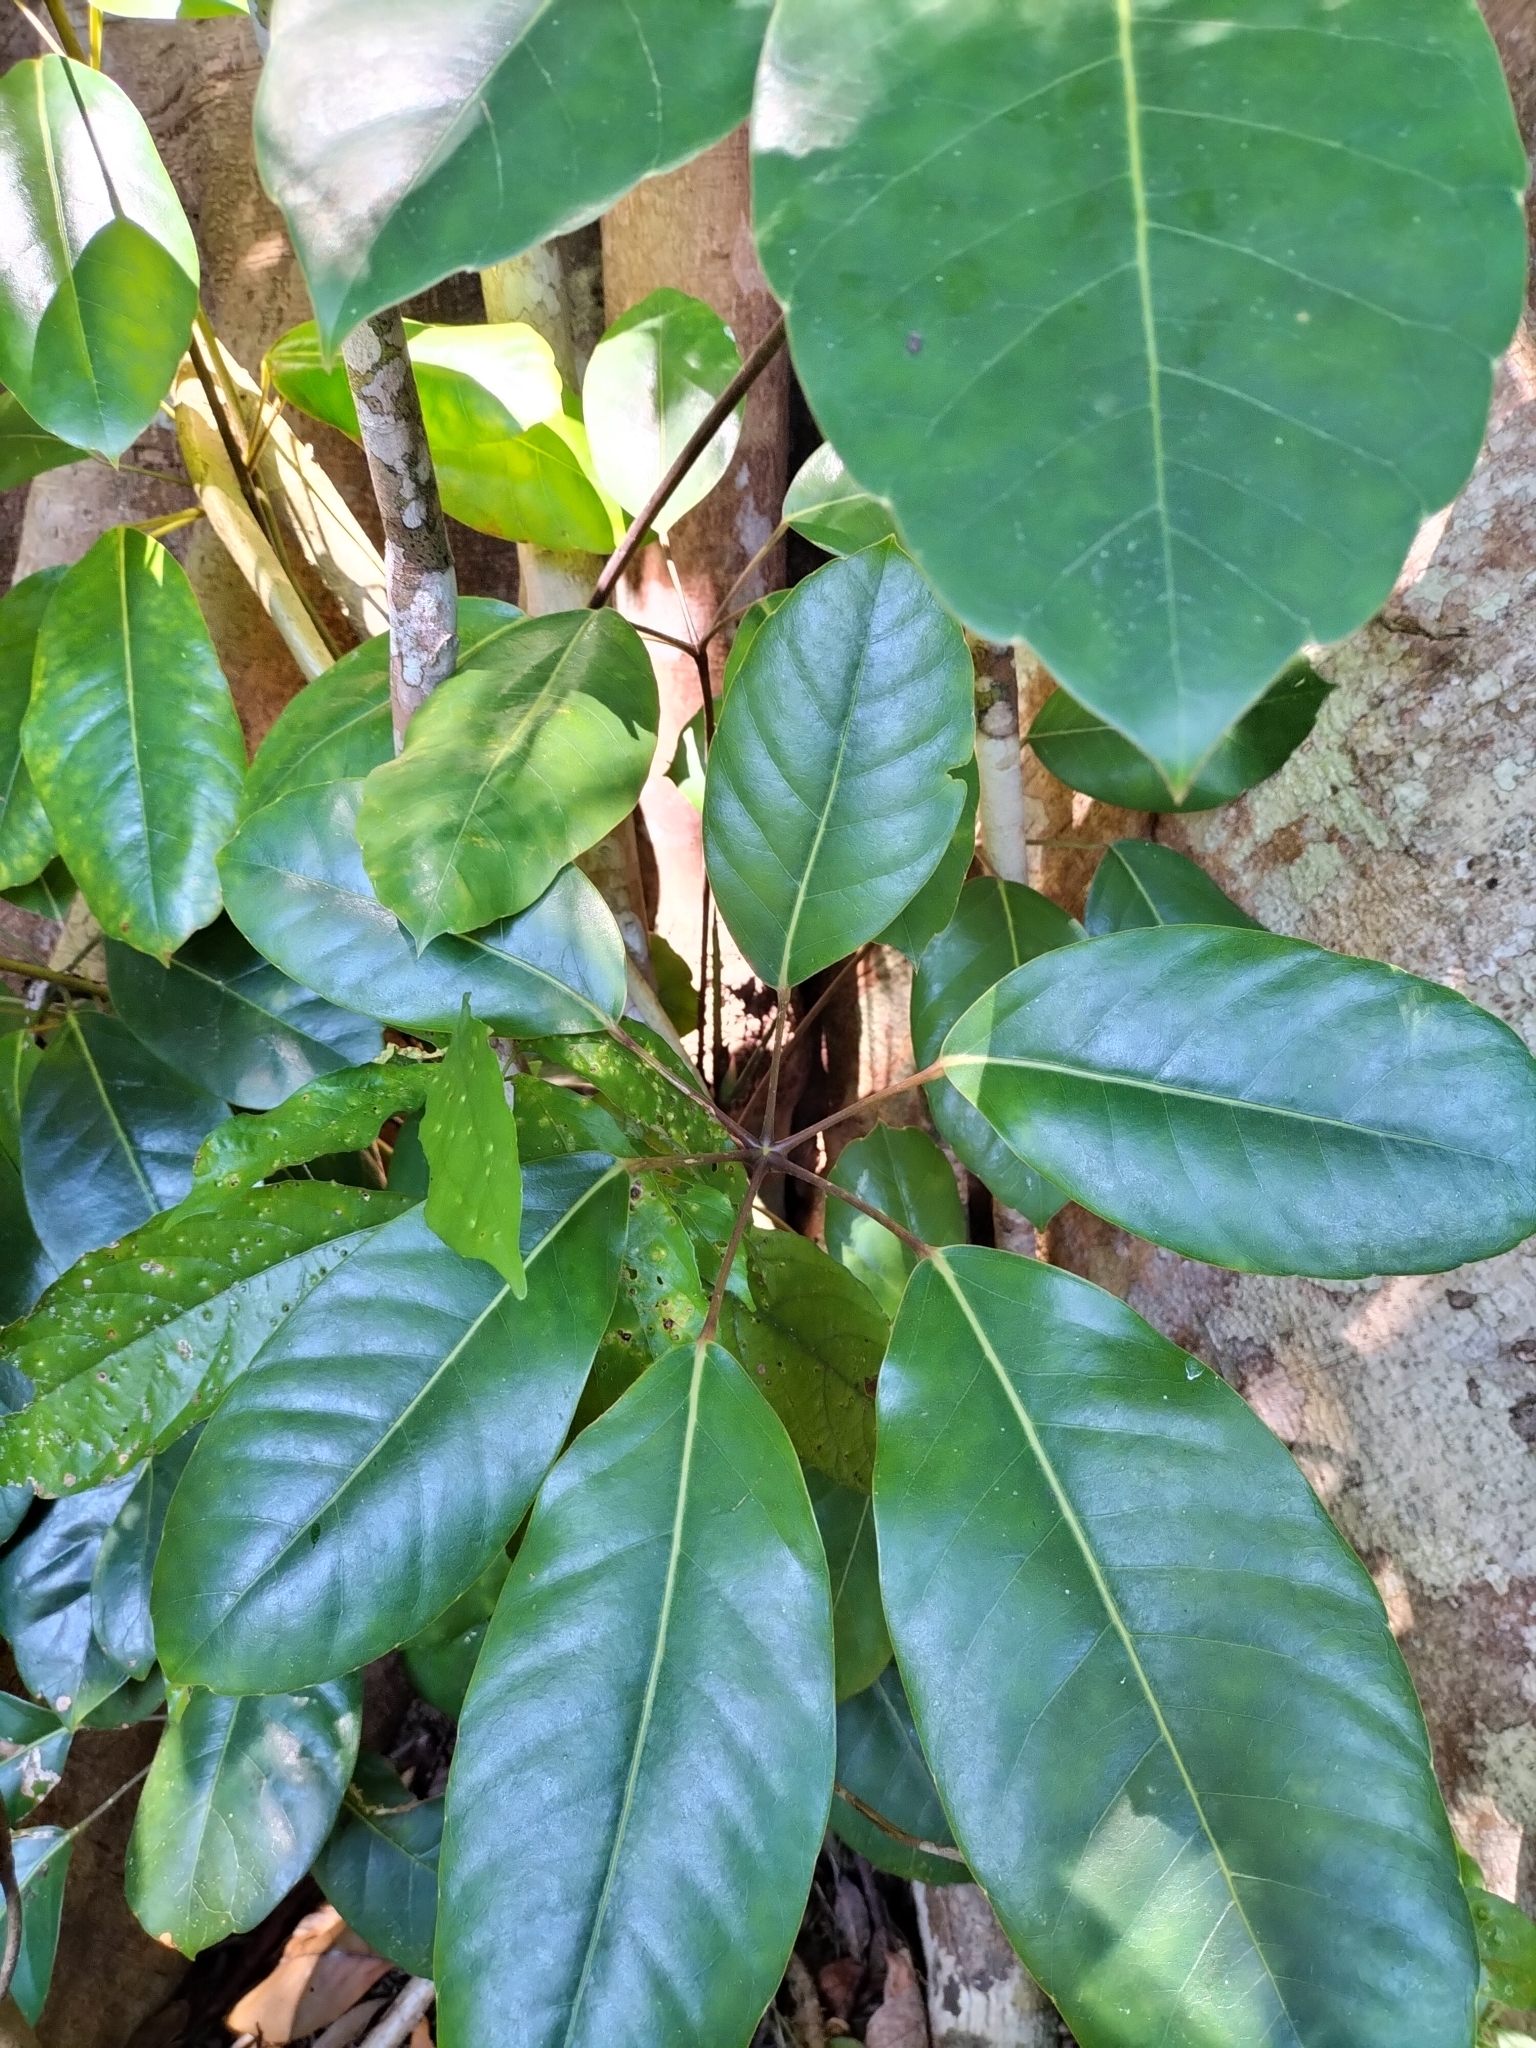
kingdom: Plantae
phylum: Tracheophyta
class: Magnoliopsida
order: Apiales
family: Araliaceae
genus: Heptapleurum
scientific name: Heptapleurum actinophyllum
